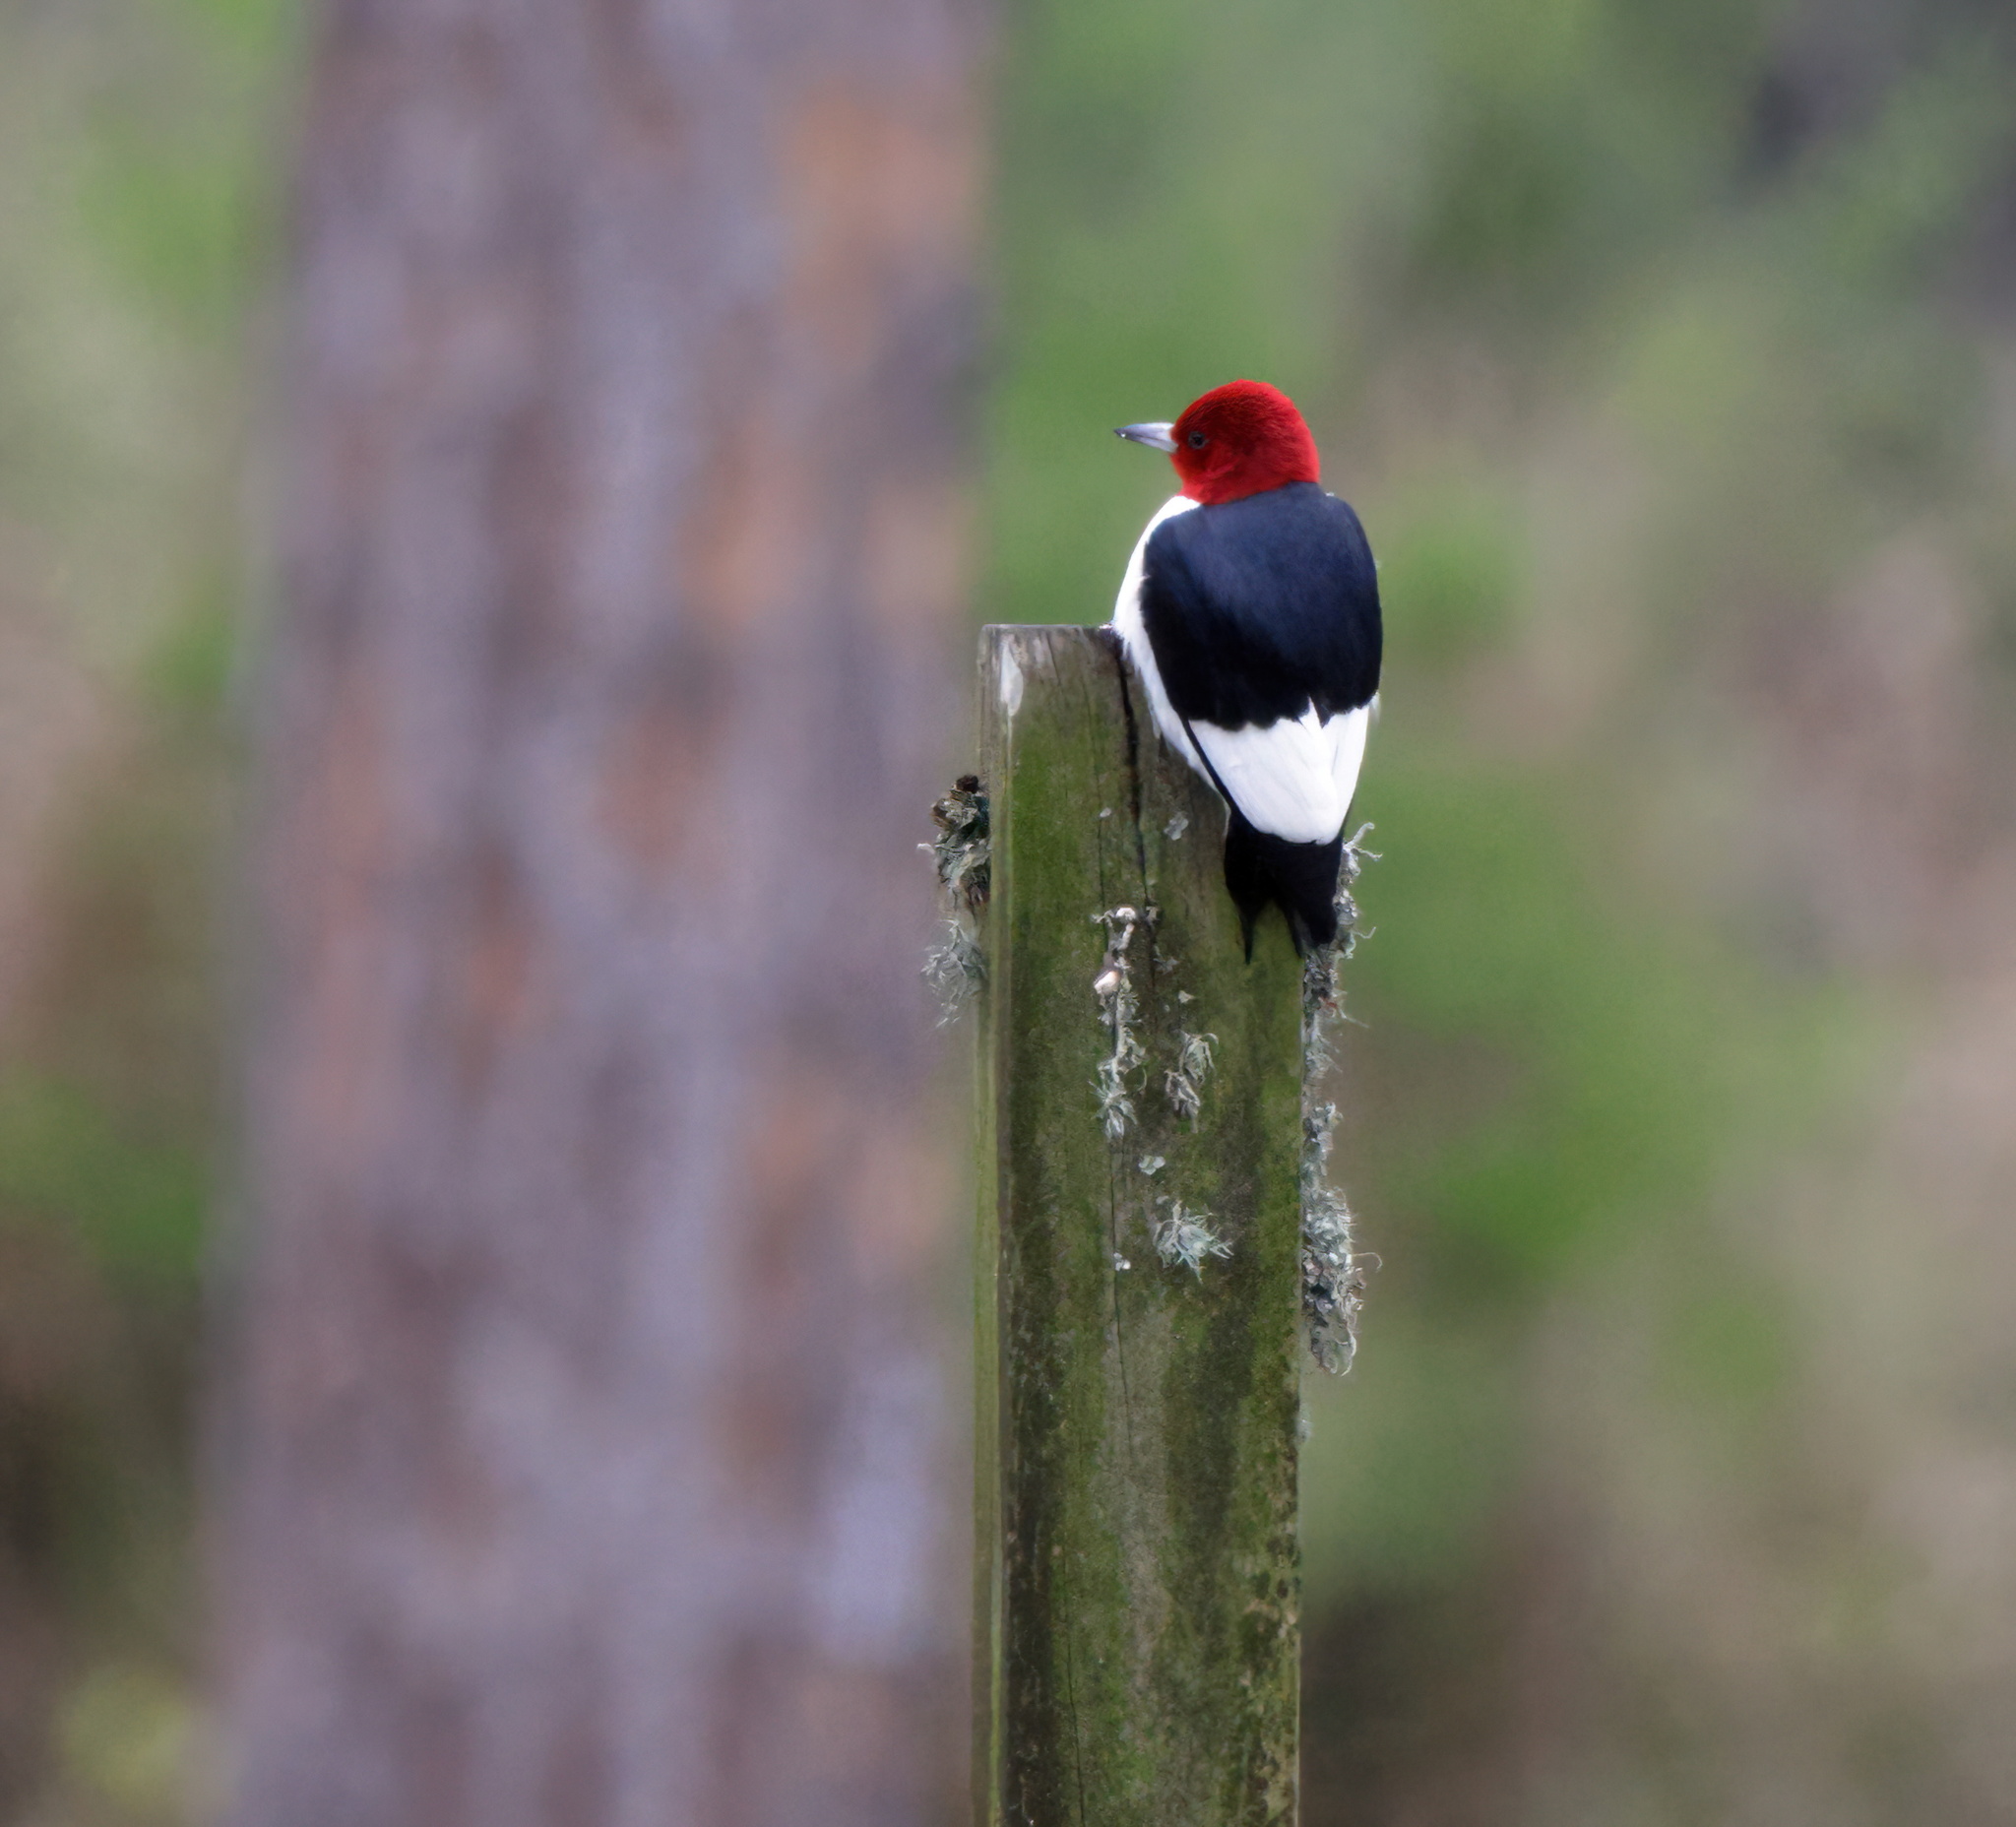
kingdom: Animalia
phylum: Chordata
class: Aves
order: Piciformes
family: Picidae
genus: Melanerpes
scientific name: Melanerpes erythrocephalus
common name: Red-headed woodpecker
